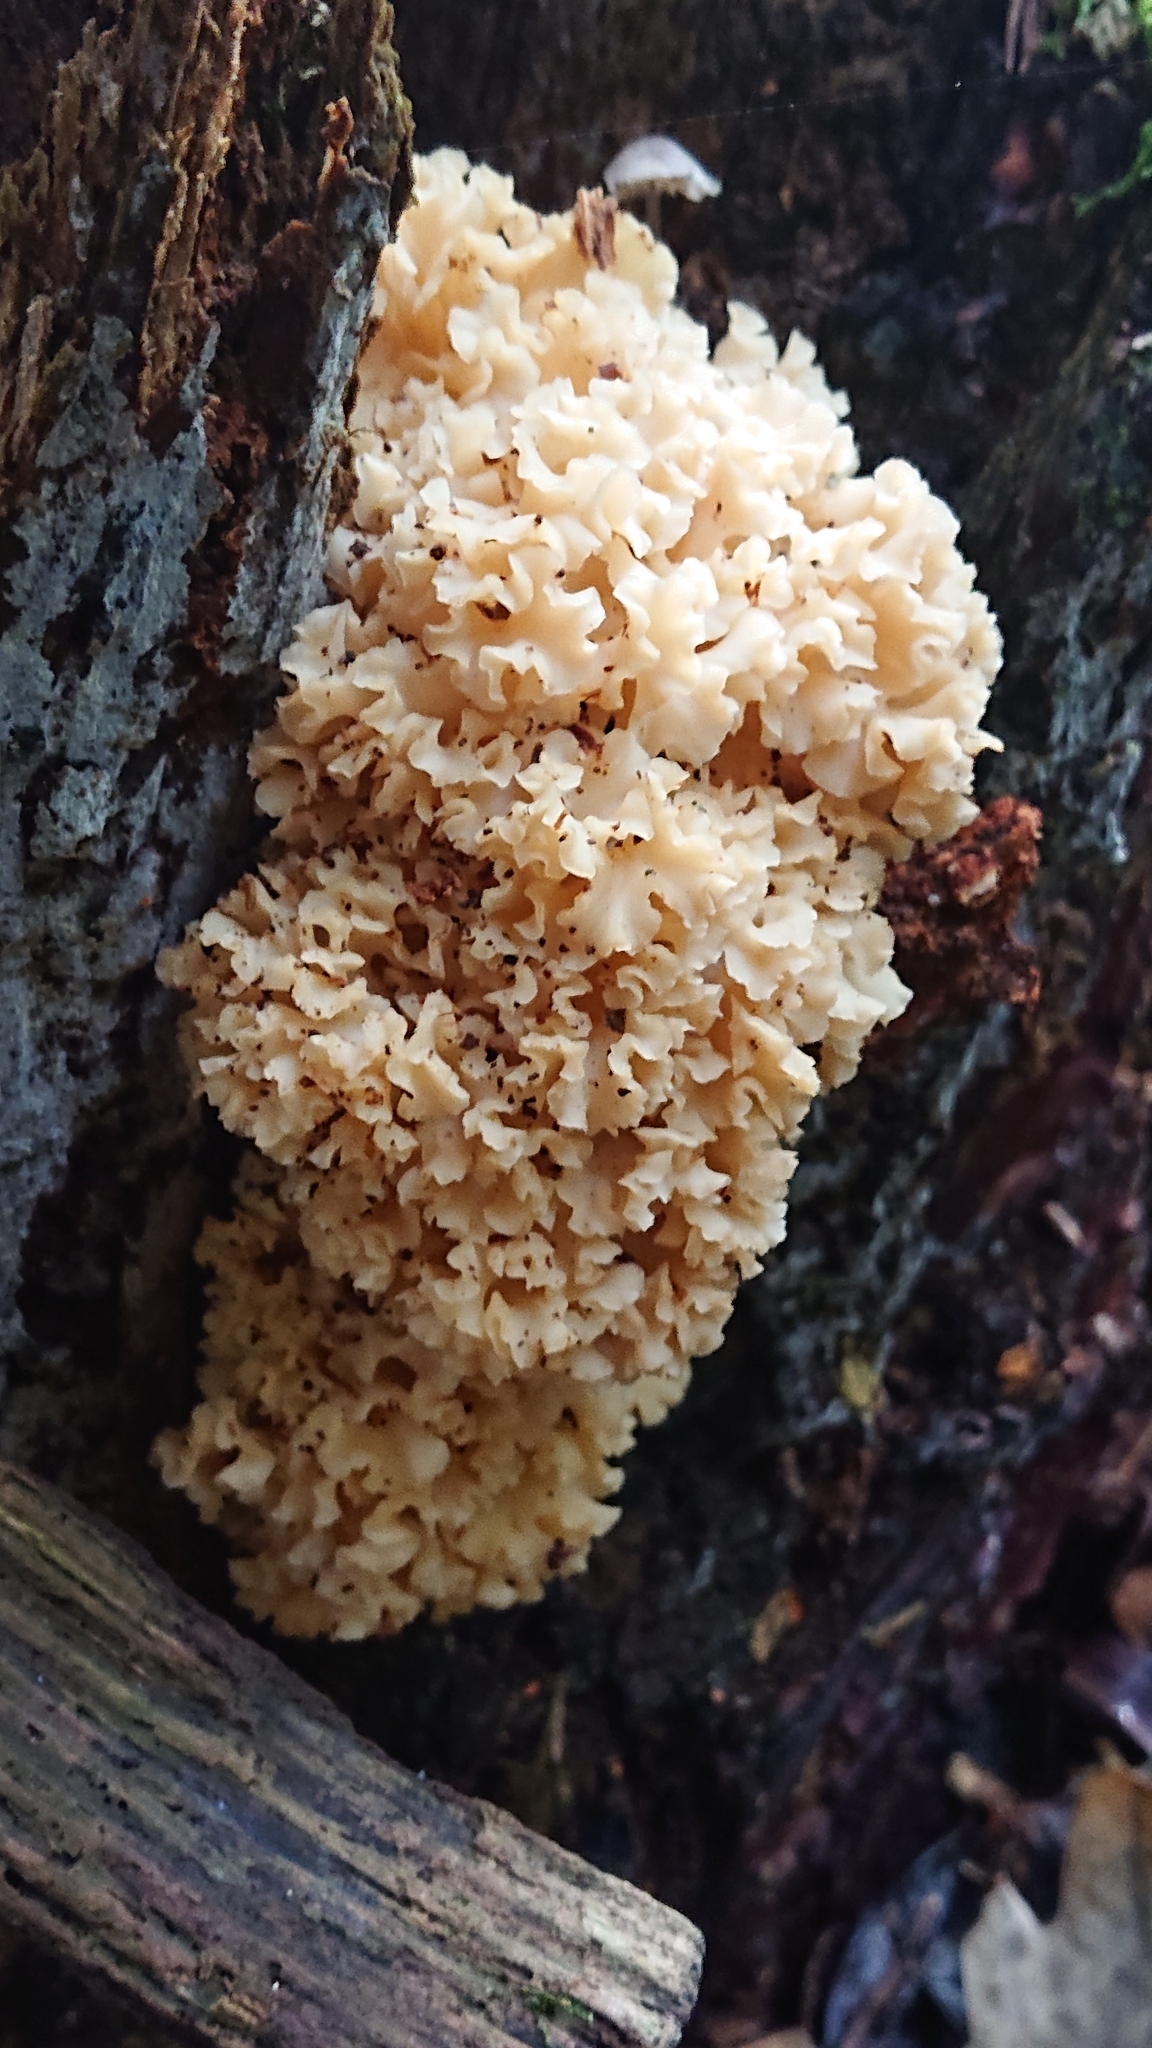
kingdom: Fungi
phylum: Basidiomycota
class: Agaricomycetes
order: Polyporales
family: Sparassidaceae
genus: Sparassis
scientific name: Sparassis crispa
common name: Brain fungus
